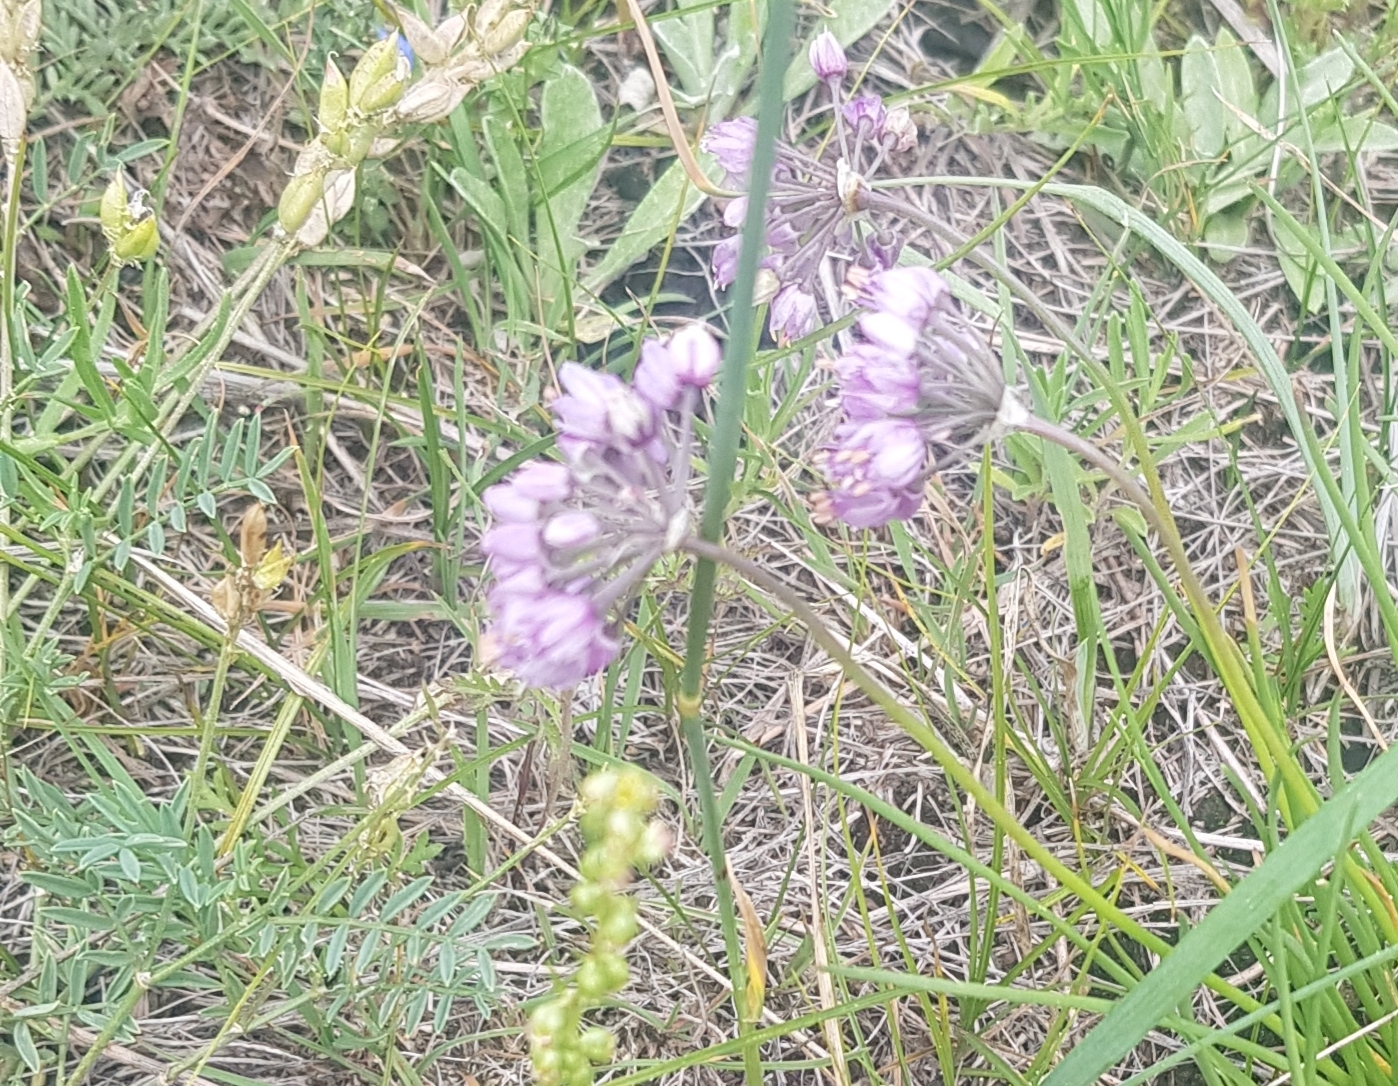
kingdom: Plantae
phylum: Tracheophyta
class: Liliopsida
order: Asparagales
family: Amaryllidaceae
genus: Allium
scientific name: Allium bidentatum
